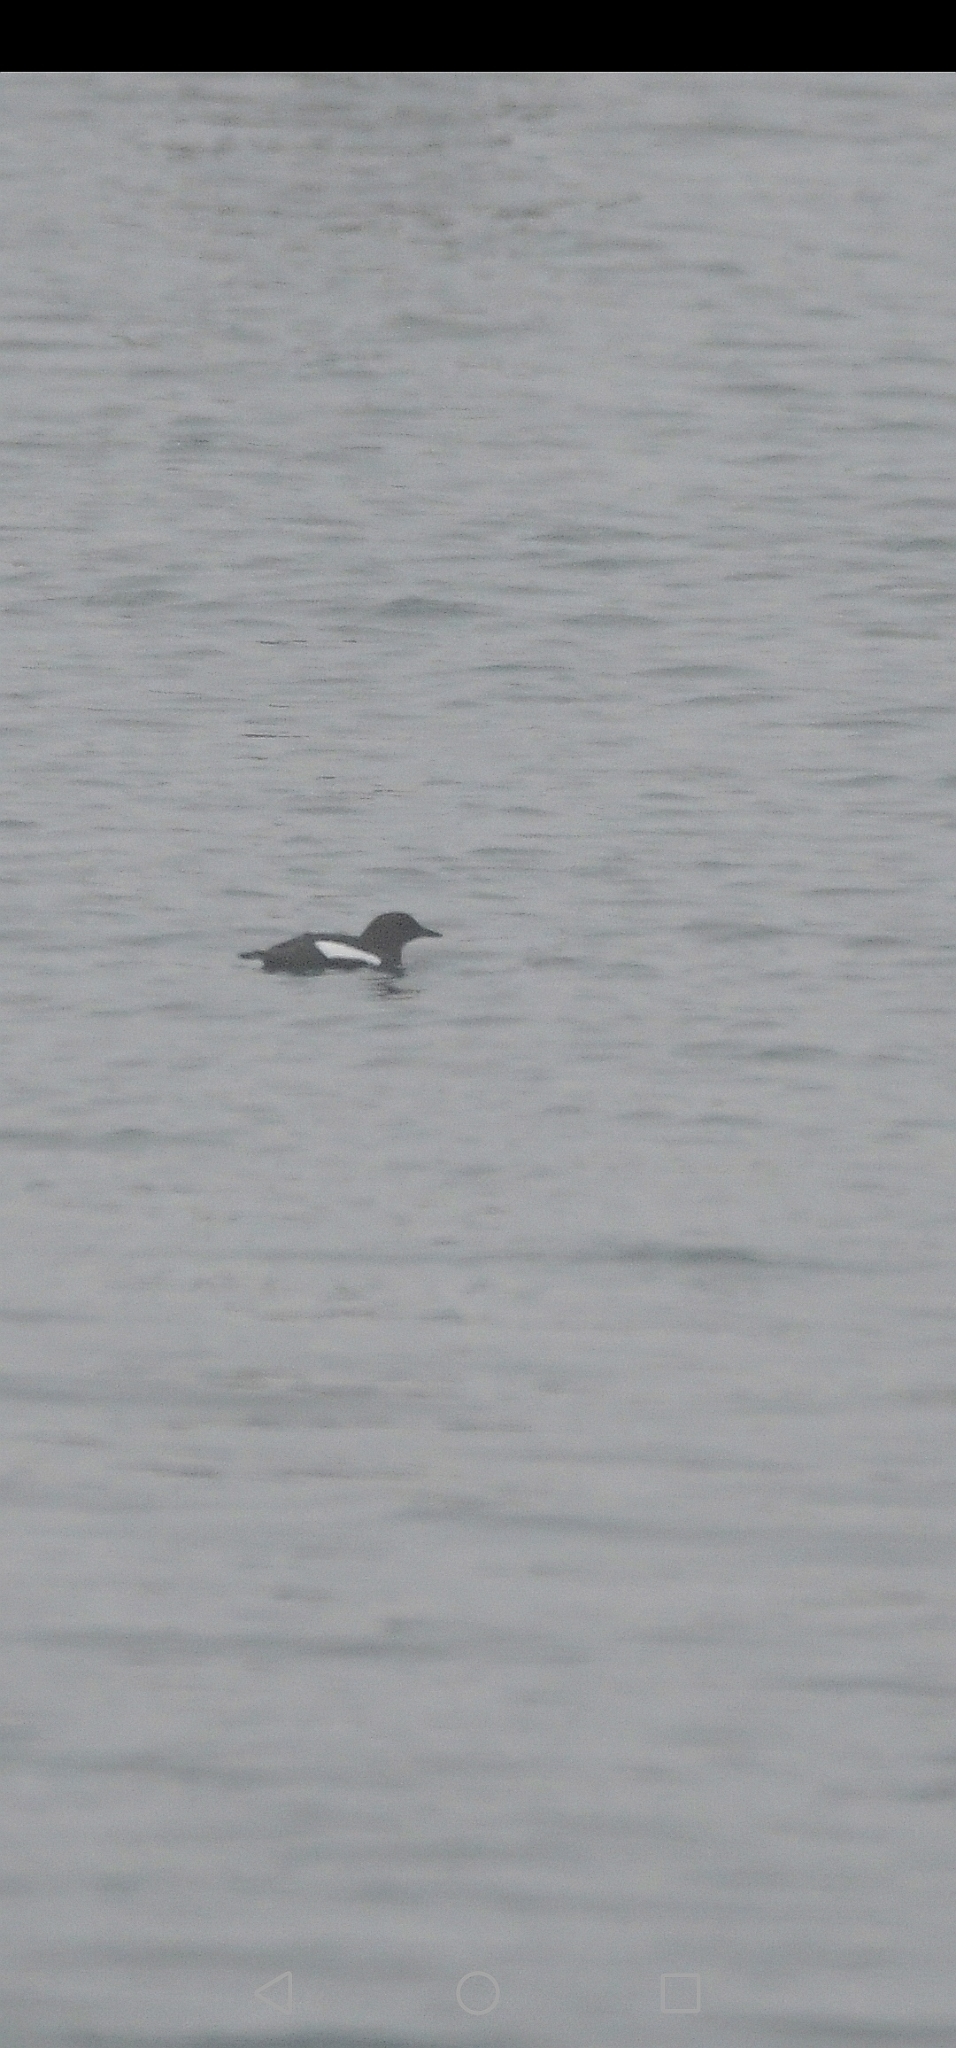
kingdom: Animalia
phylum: Chordata
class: Aves
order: Charadriiformes
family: Alcidae
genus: Cepphus
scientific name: Cepphus grylle
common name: Black guillemot
